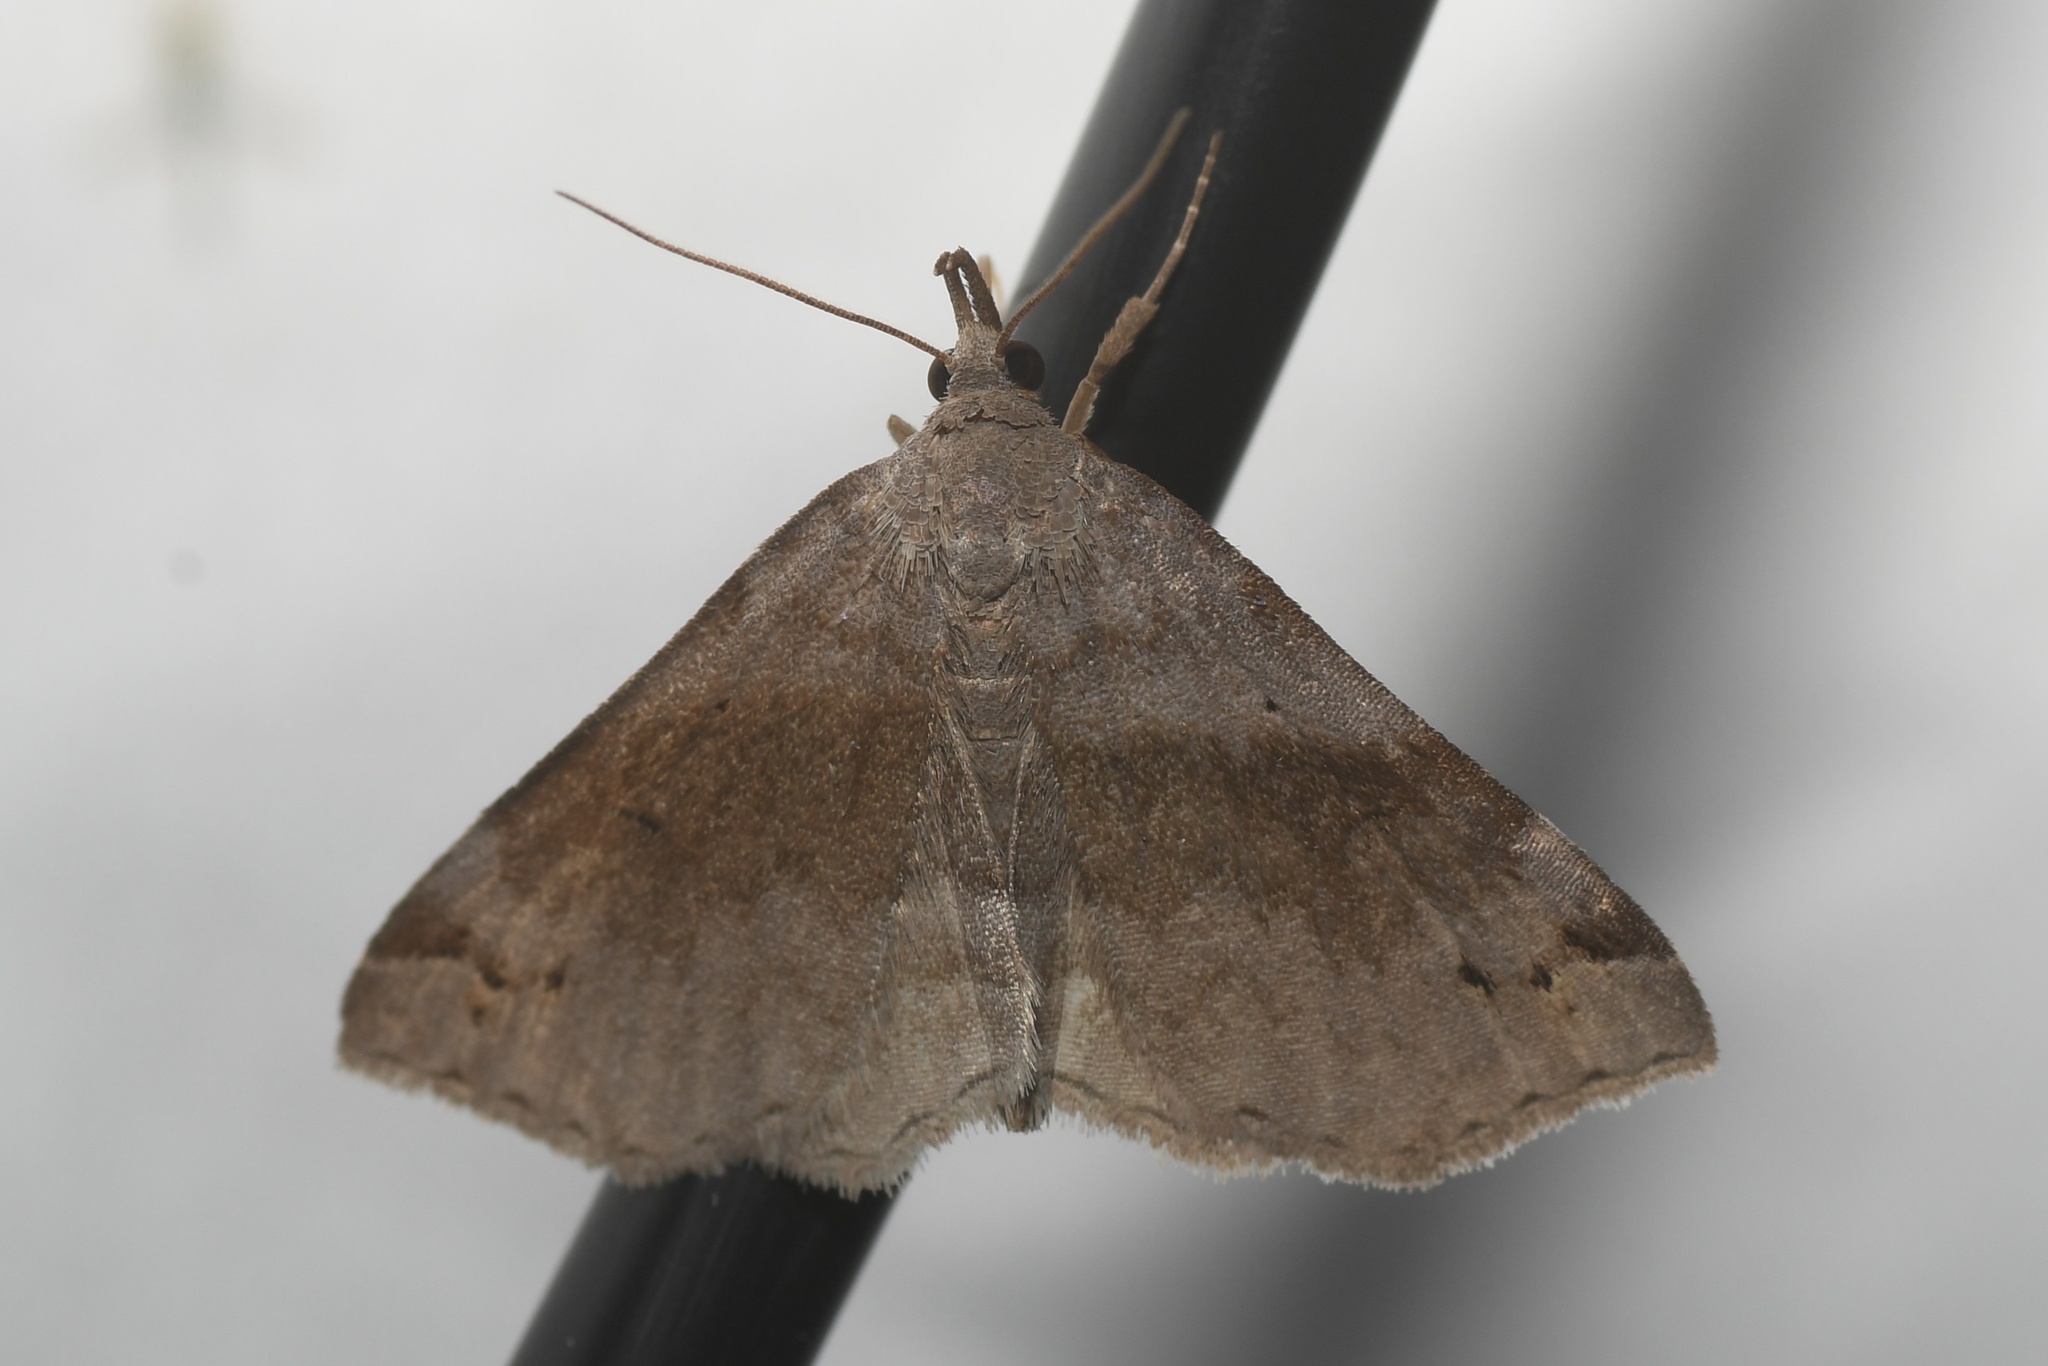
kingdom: Animalia
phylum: Arthropoda
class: Insecta
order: Lepidoptera
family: Erebidae
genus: Spargaloma
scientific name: Spargaloma sexpunctata
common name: Six-spotted gray
